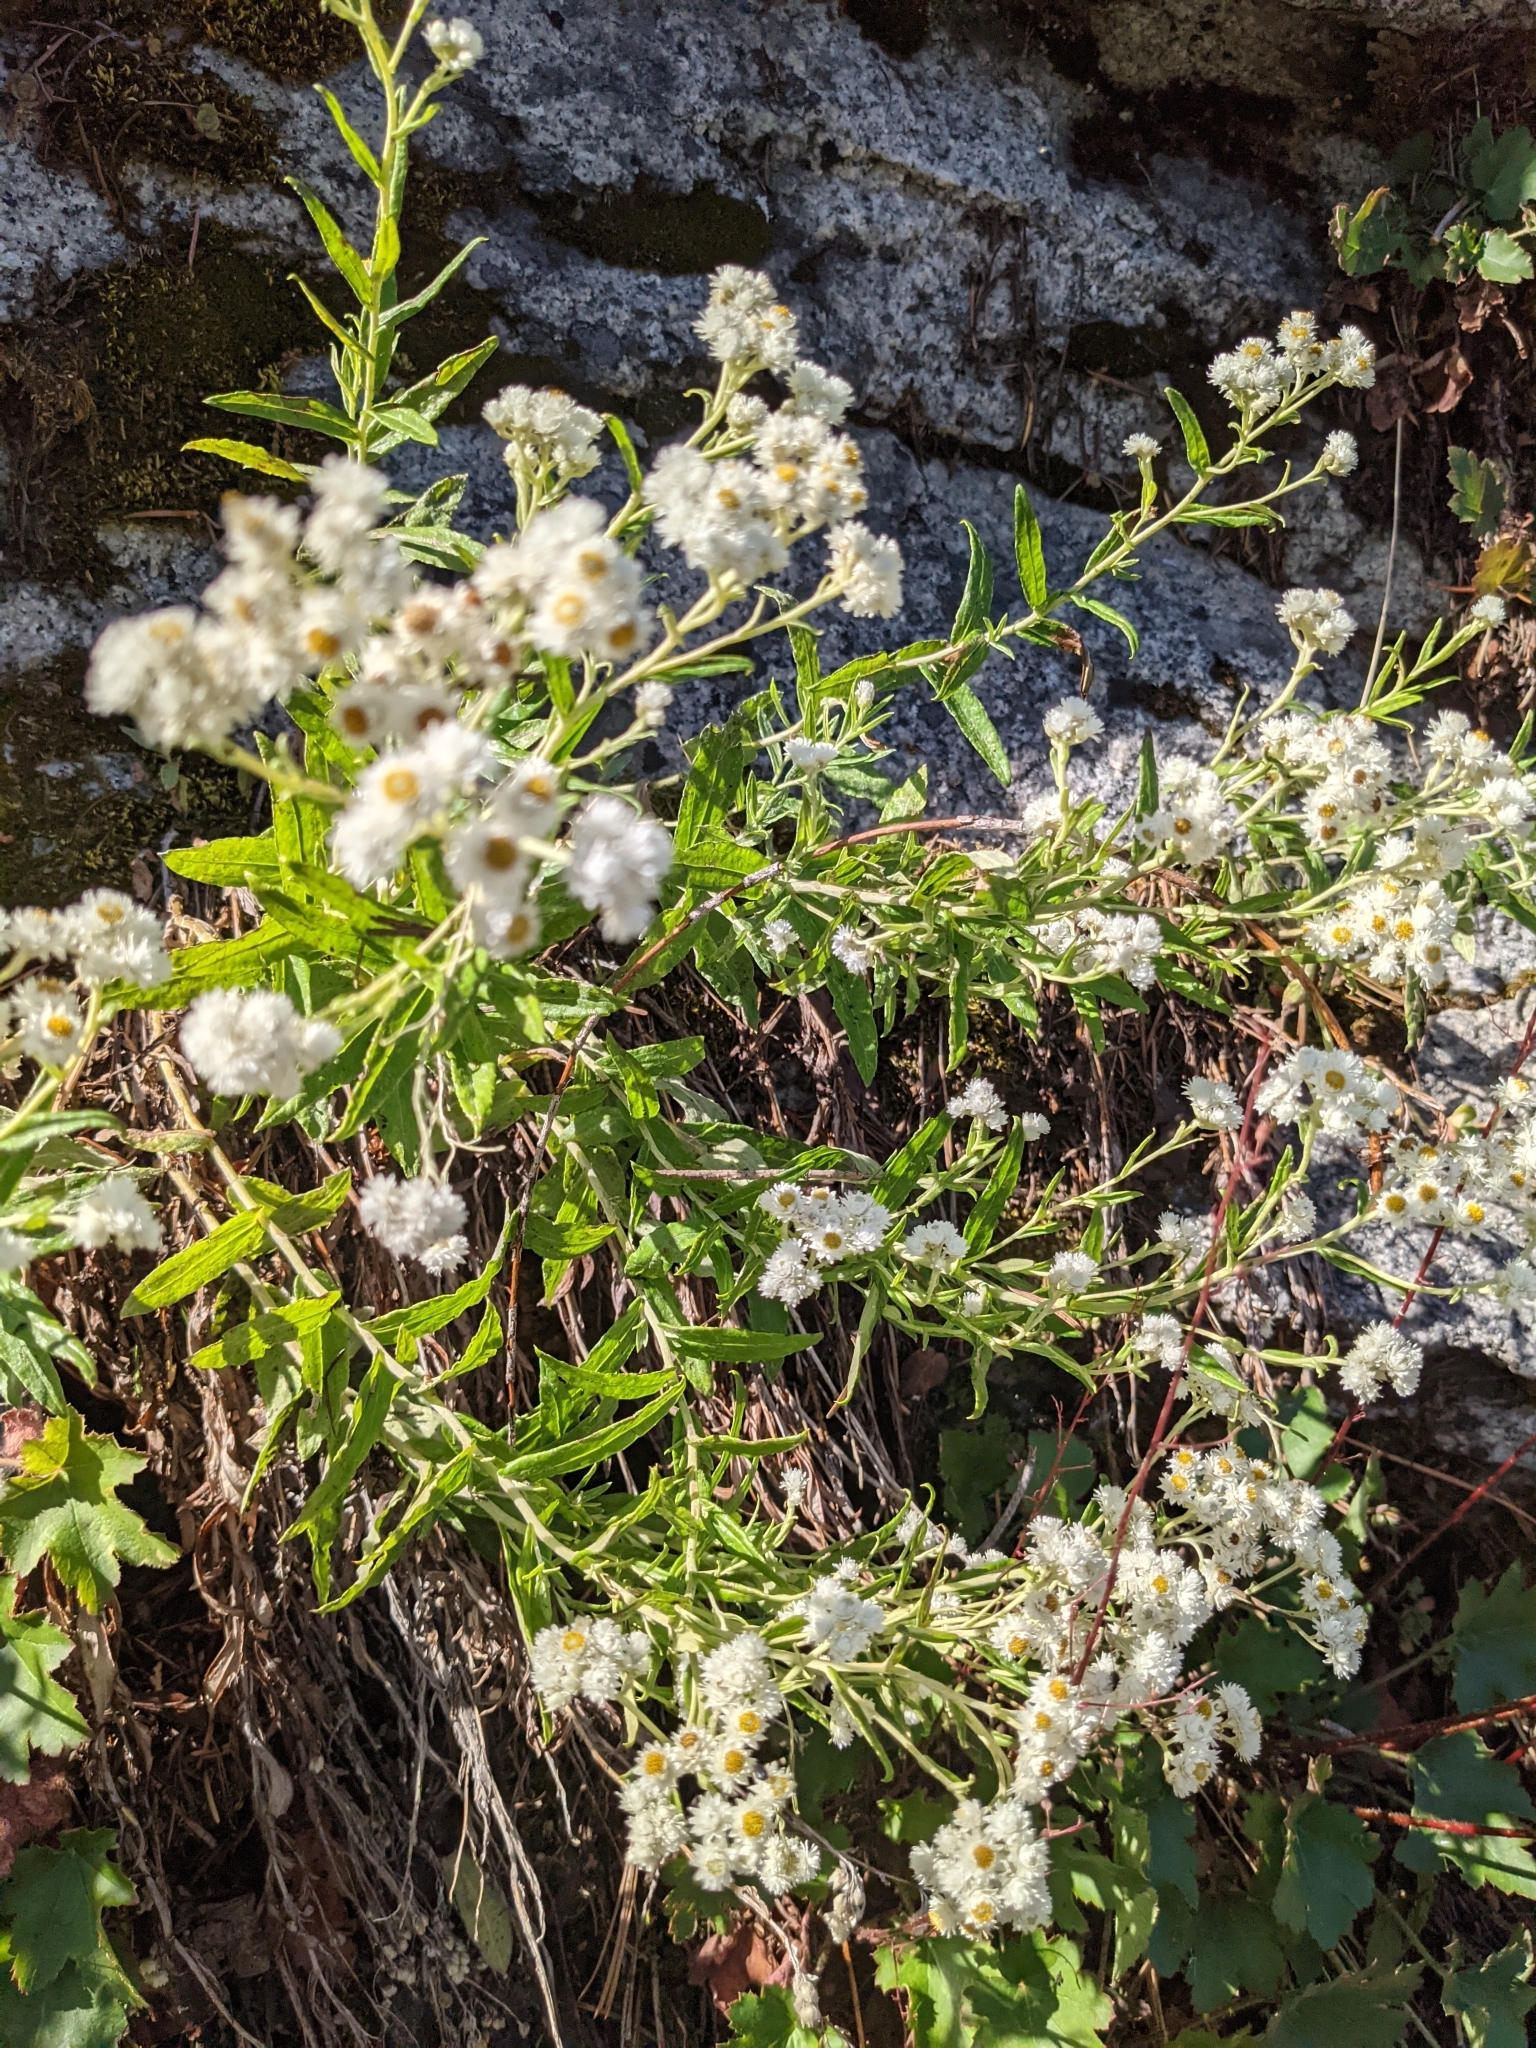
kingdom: Plantae
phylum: Tracheophyta
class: Magnoliopsida
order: Asterales
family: Asteraceae
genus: Anaphalis
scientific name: Anaphalis margaritacea
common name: Pearly everlasting
